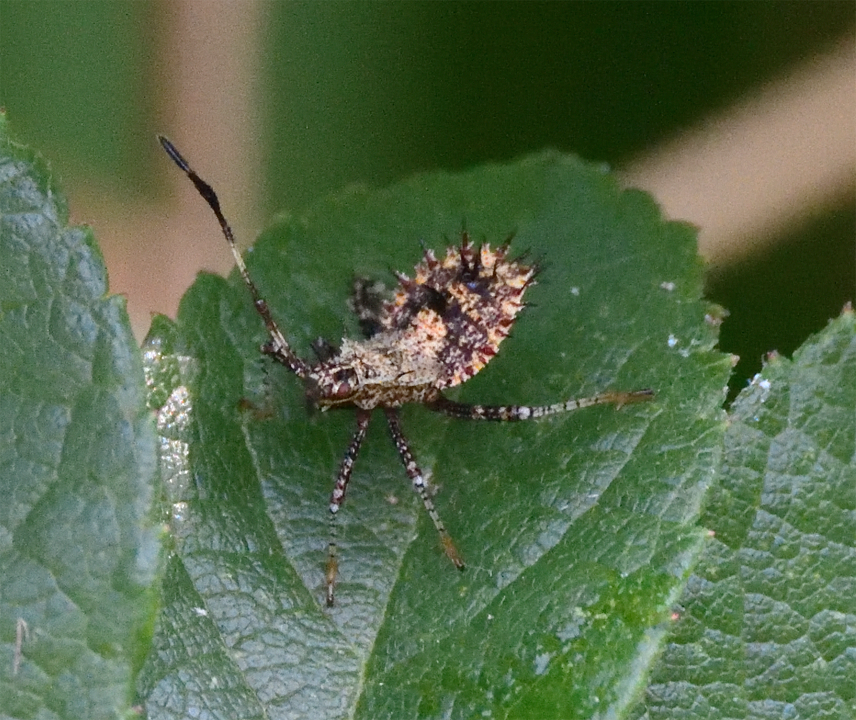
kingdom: Animalia
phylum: Arthropoda
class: Insecta
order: Hemiptera
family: Coreidae
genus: Euthochtha
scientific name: Euthochtha galeator
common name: Helmeted squash bug
